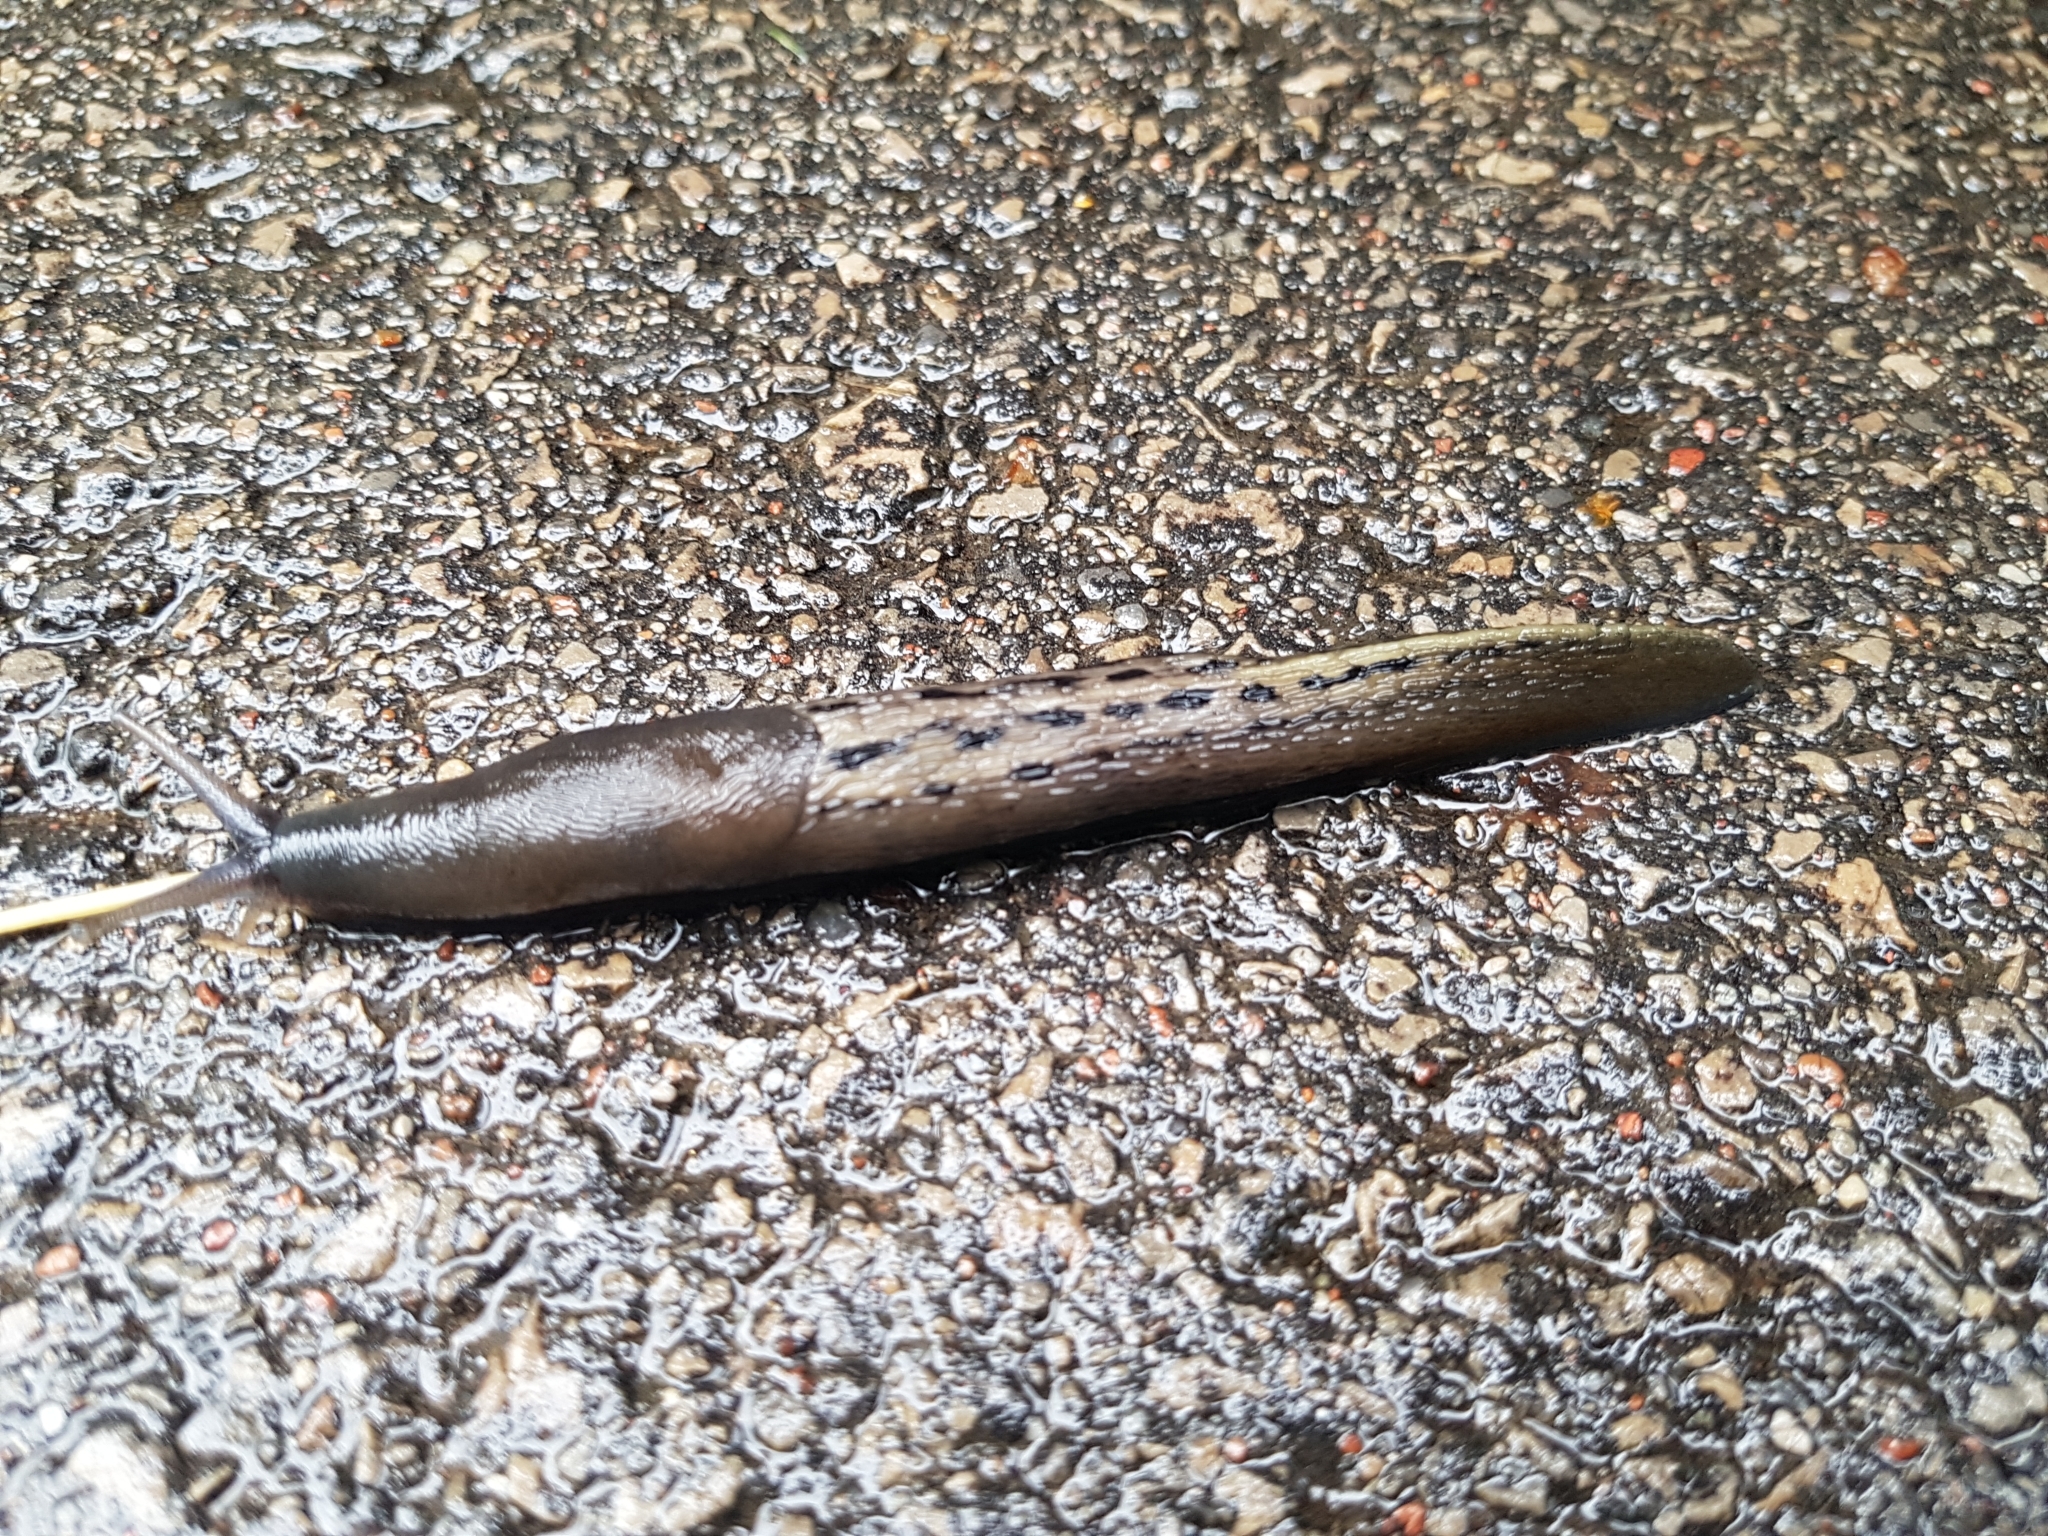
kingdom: Animalia
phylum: Mollusca
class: Gastropoda
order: Stylommatophora
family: Limacidae
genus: Limax
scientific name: Limax cinereoniger
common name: Ash-black slug
